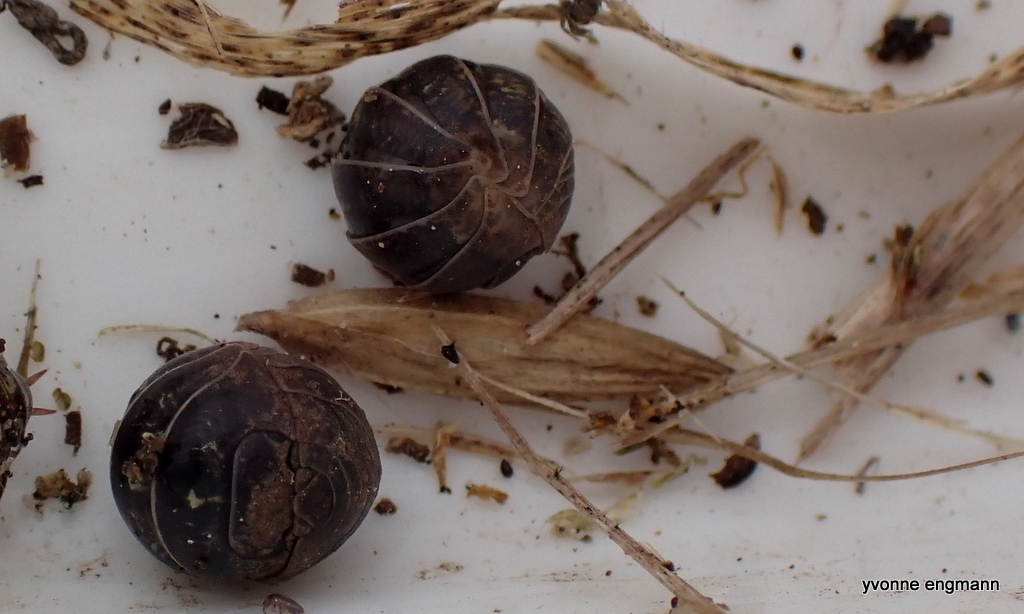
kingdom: Animalia
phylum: Arthropoda
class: Malacostraca
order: Isopoda
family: Armadillidiidae
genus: Armadillidium
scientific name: Armadillidium vulgare
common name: Common pill woodlouse
